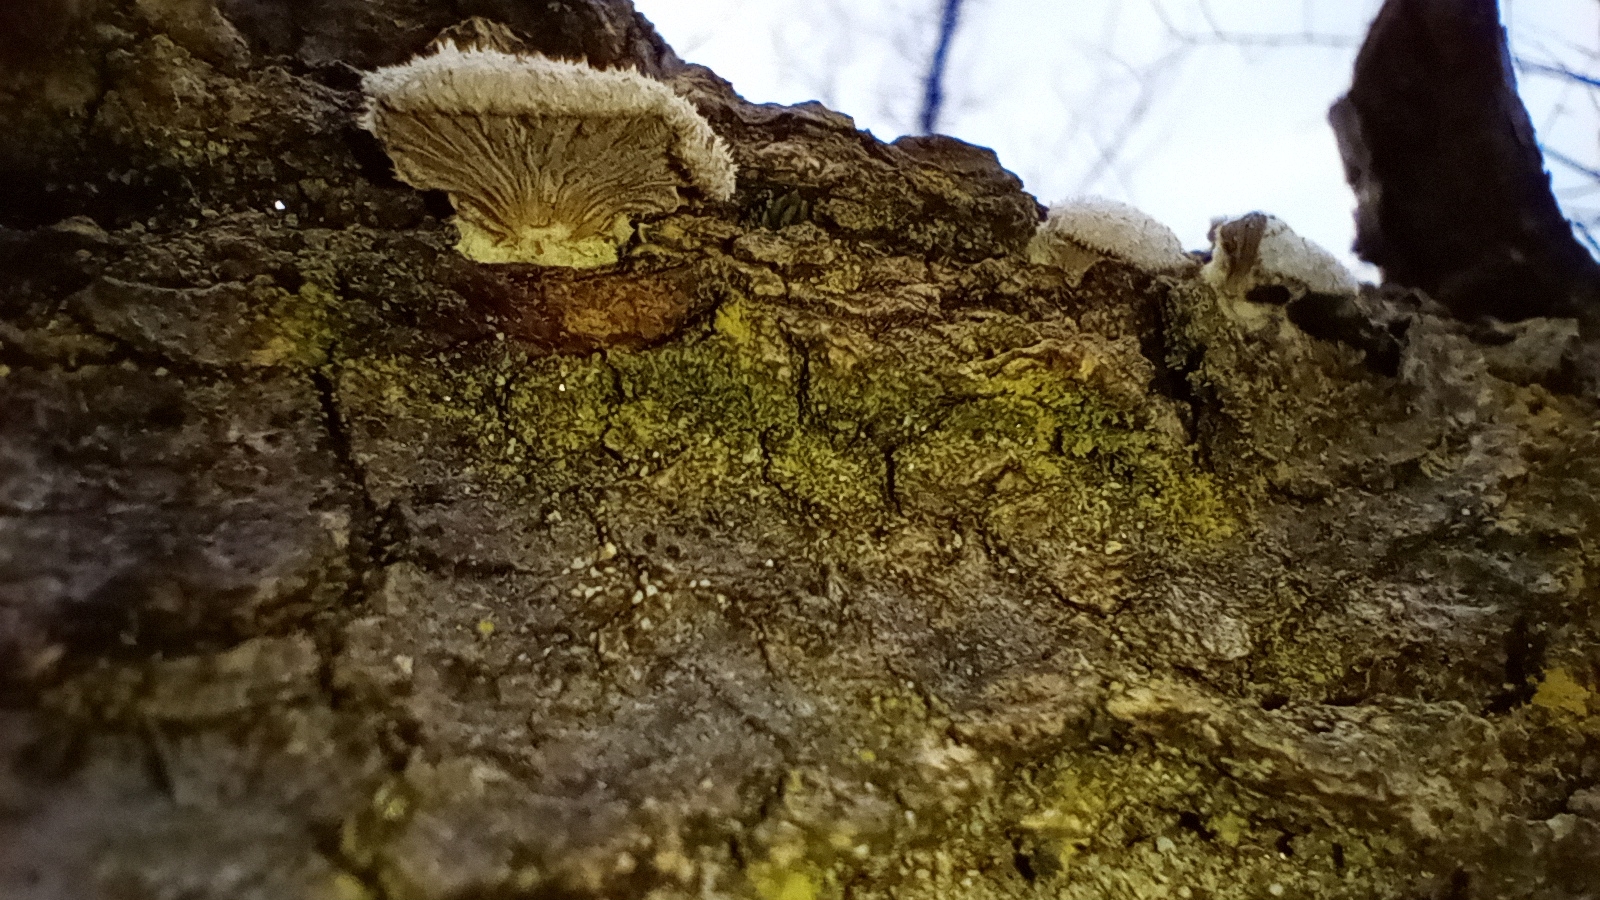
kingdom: Fungi
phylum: Basidiomycota
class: Agaricomycetes
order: Agaricales
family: Schizophyllaceae
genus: Schizophyllum
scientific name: Schizophyllum commune
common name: Common porecrust
